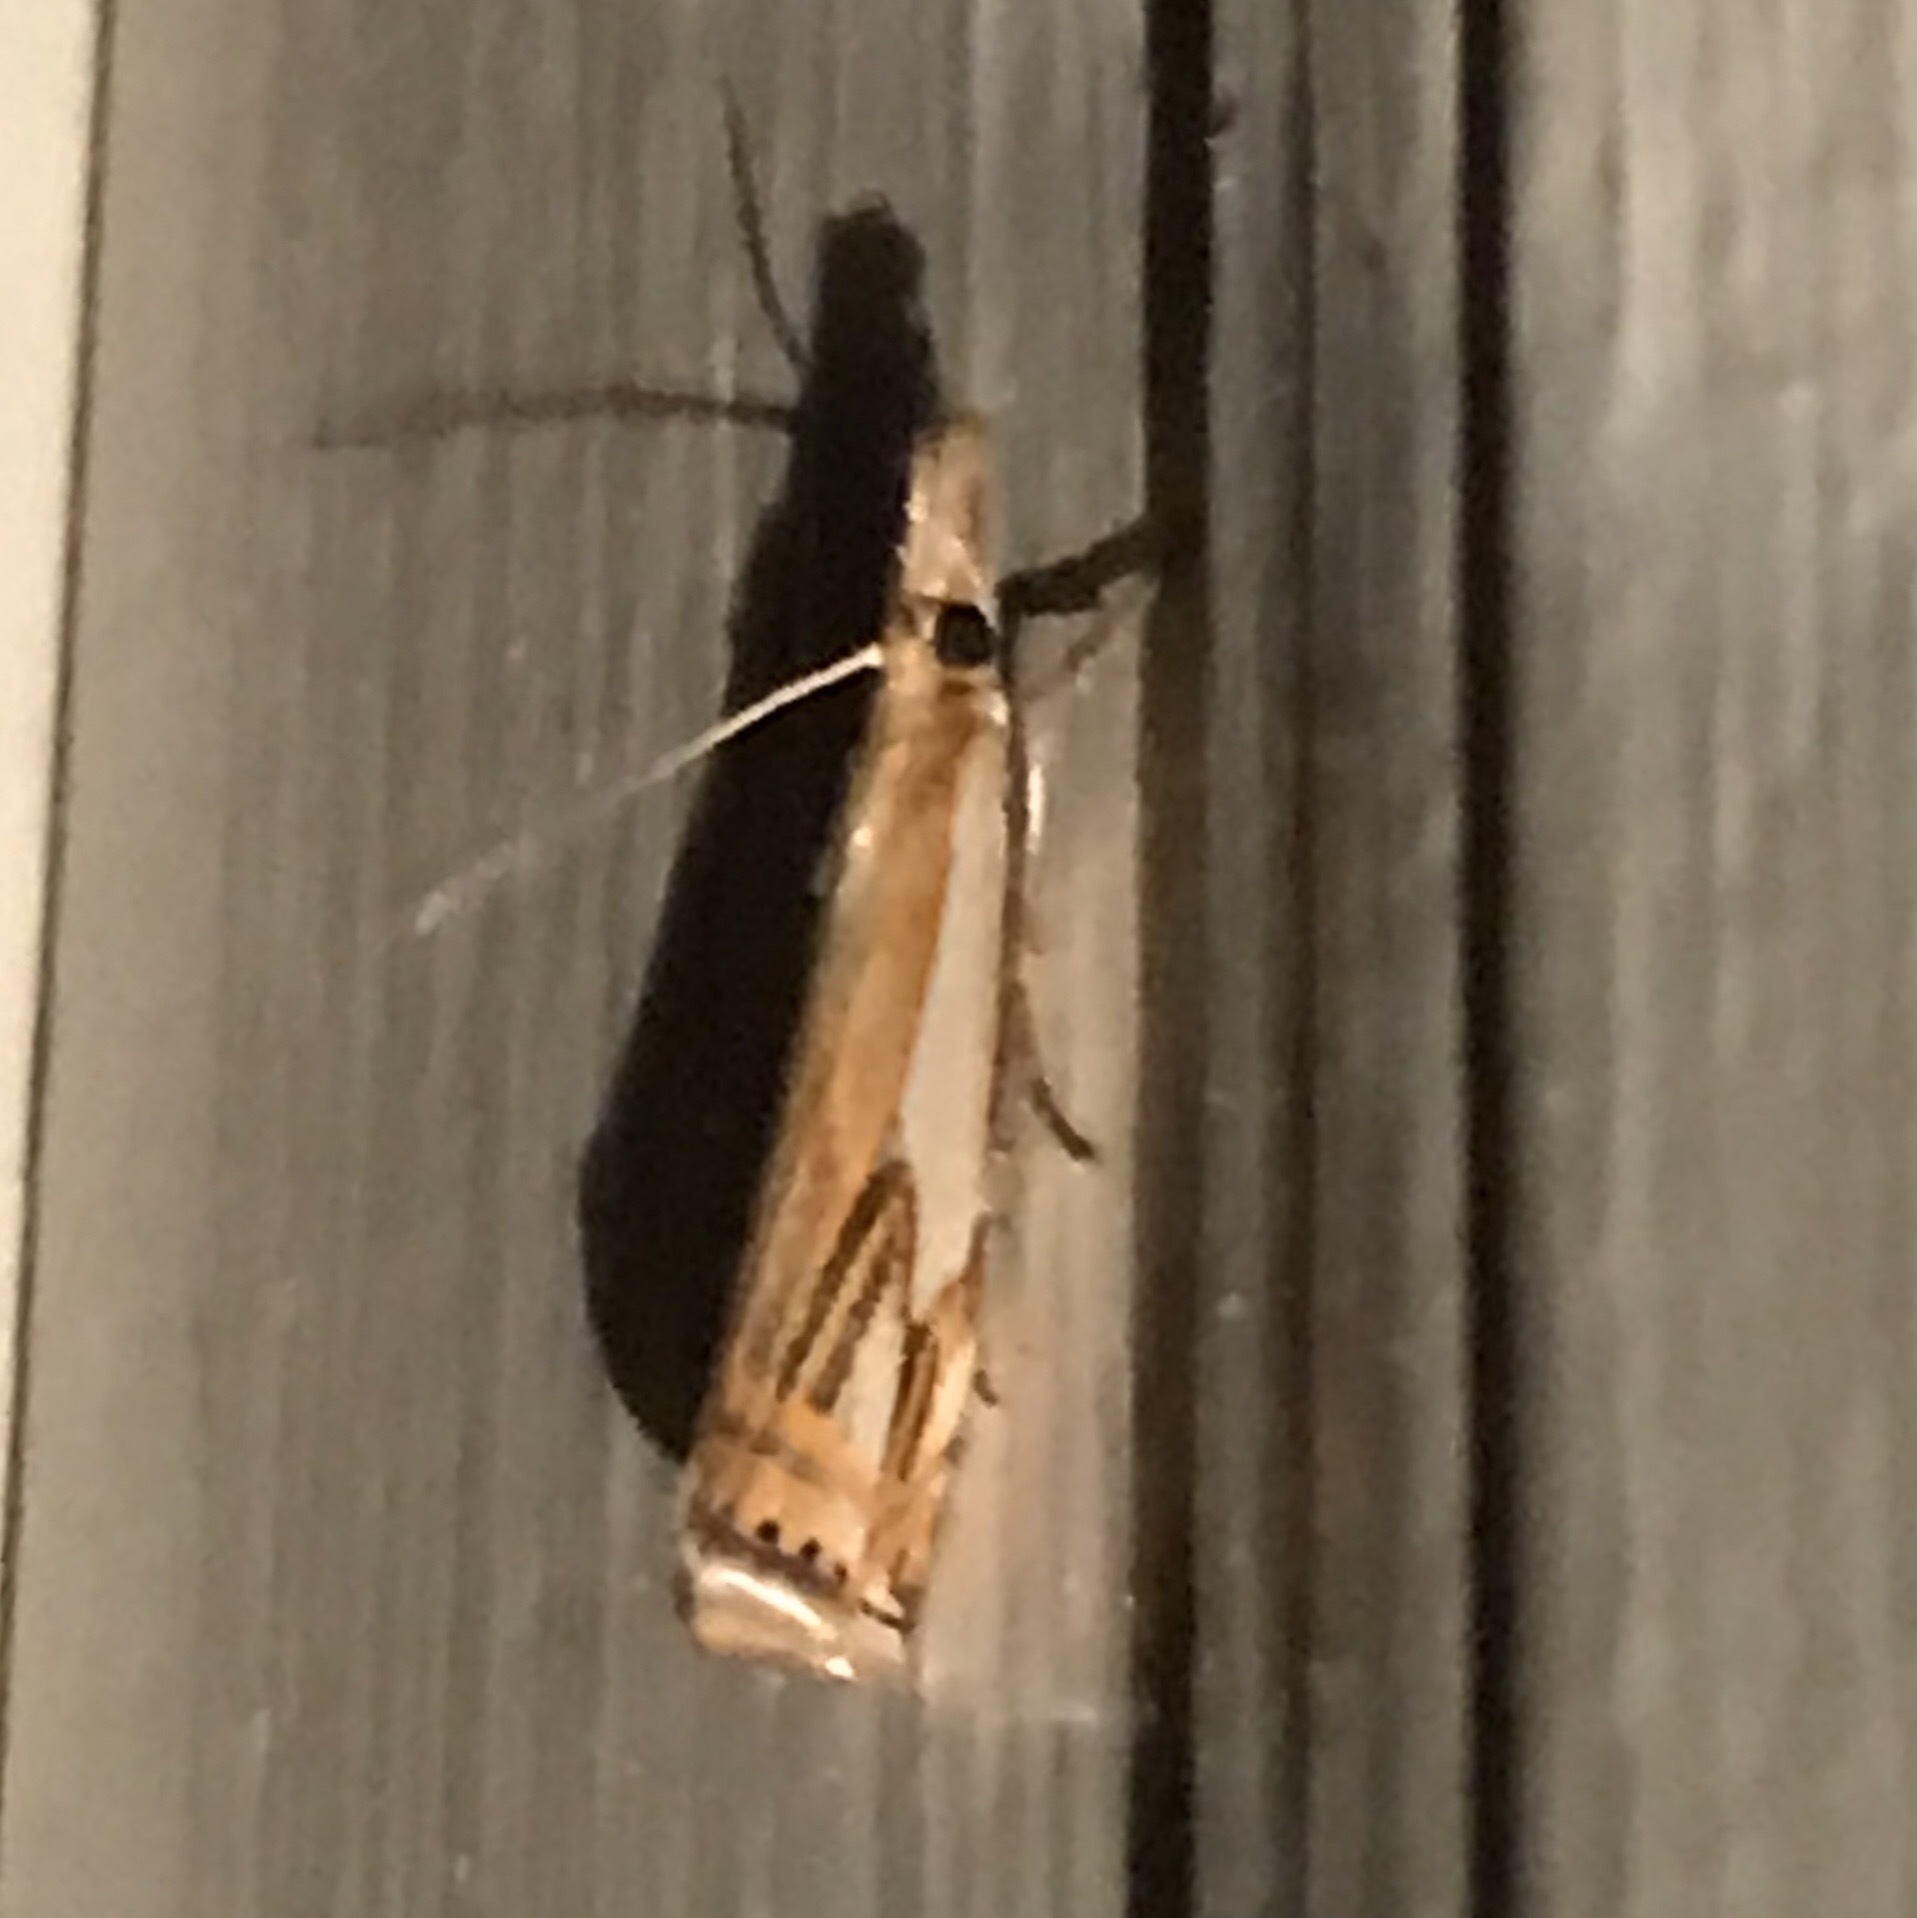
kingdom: Animalia
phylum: Arthropoda
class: Insecta
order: Lepidoptera
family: Crambidae
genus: Crambus
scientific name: Crambus agitatellus
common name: Double-banded grass-veneer
